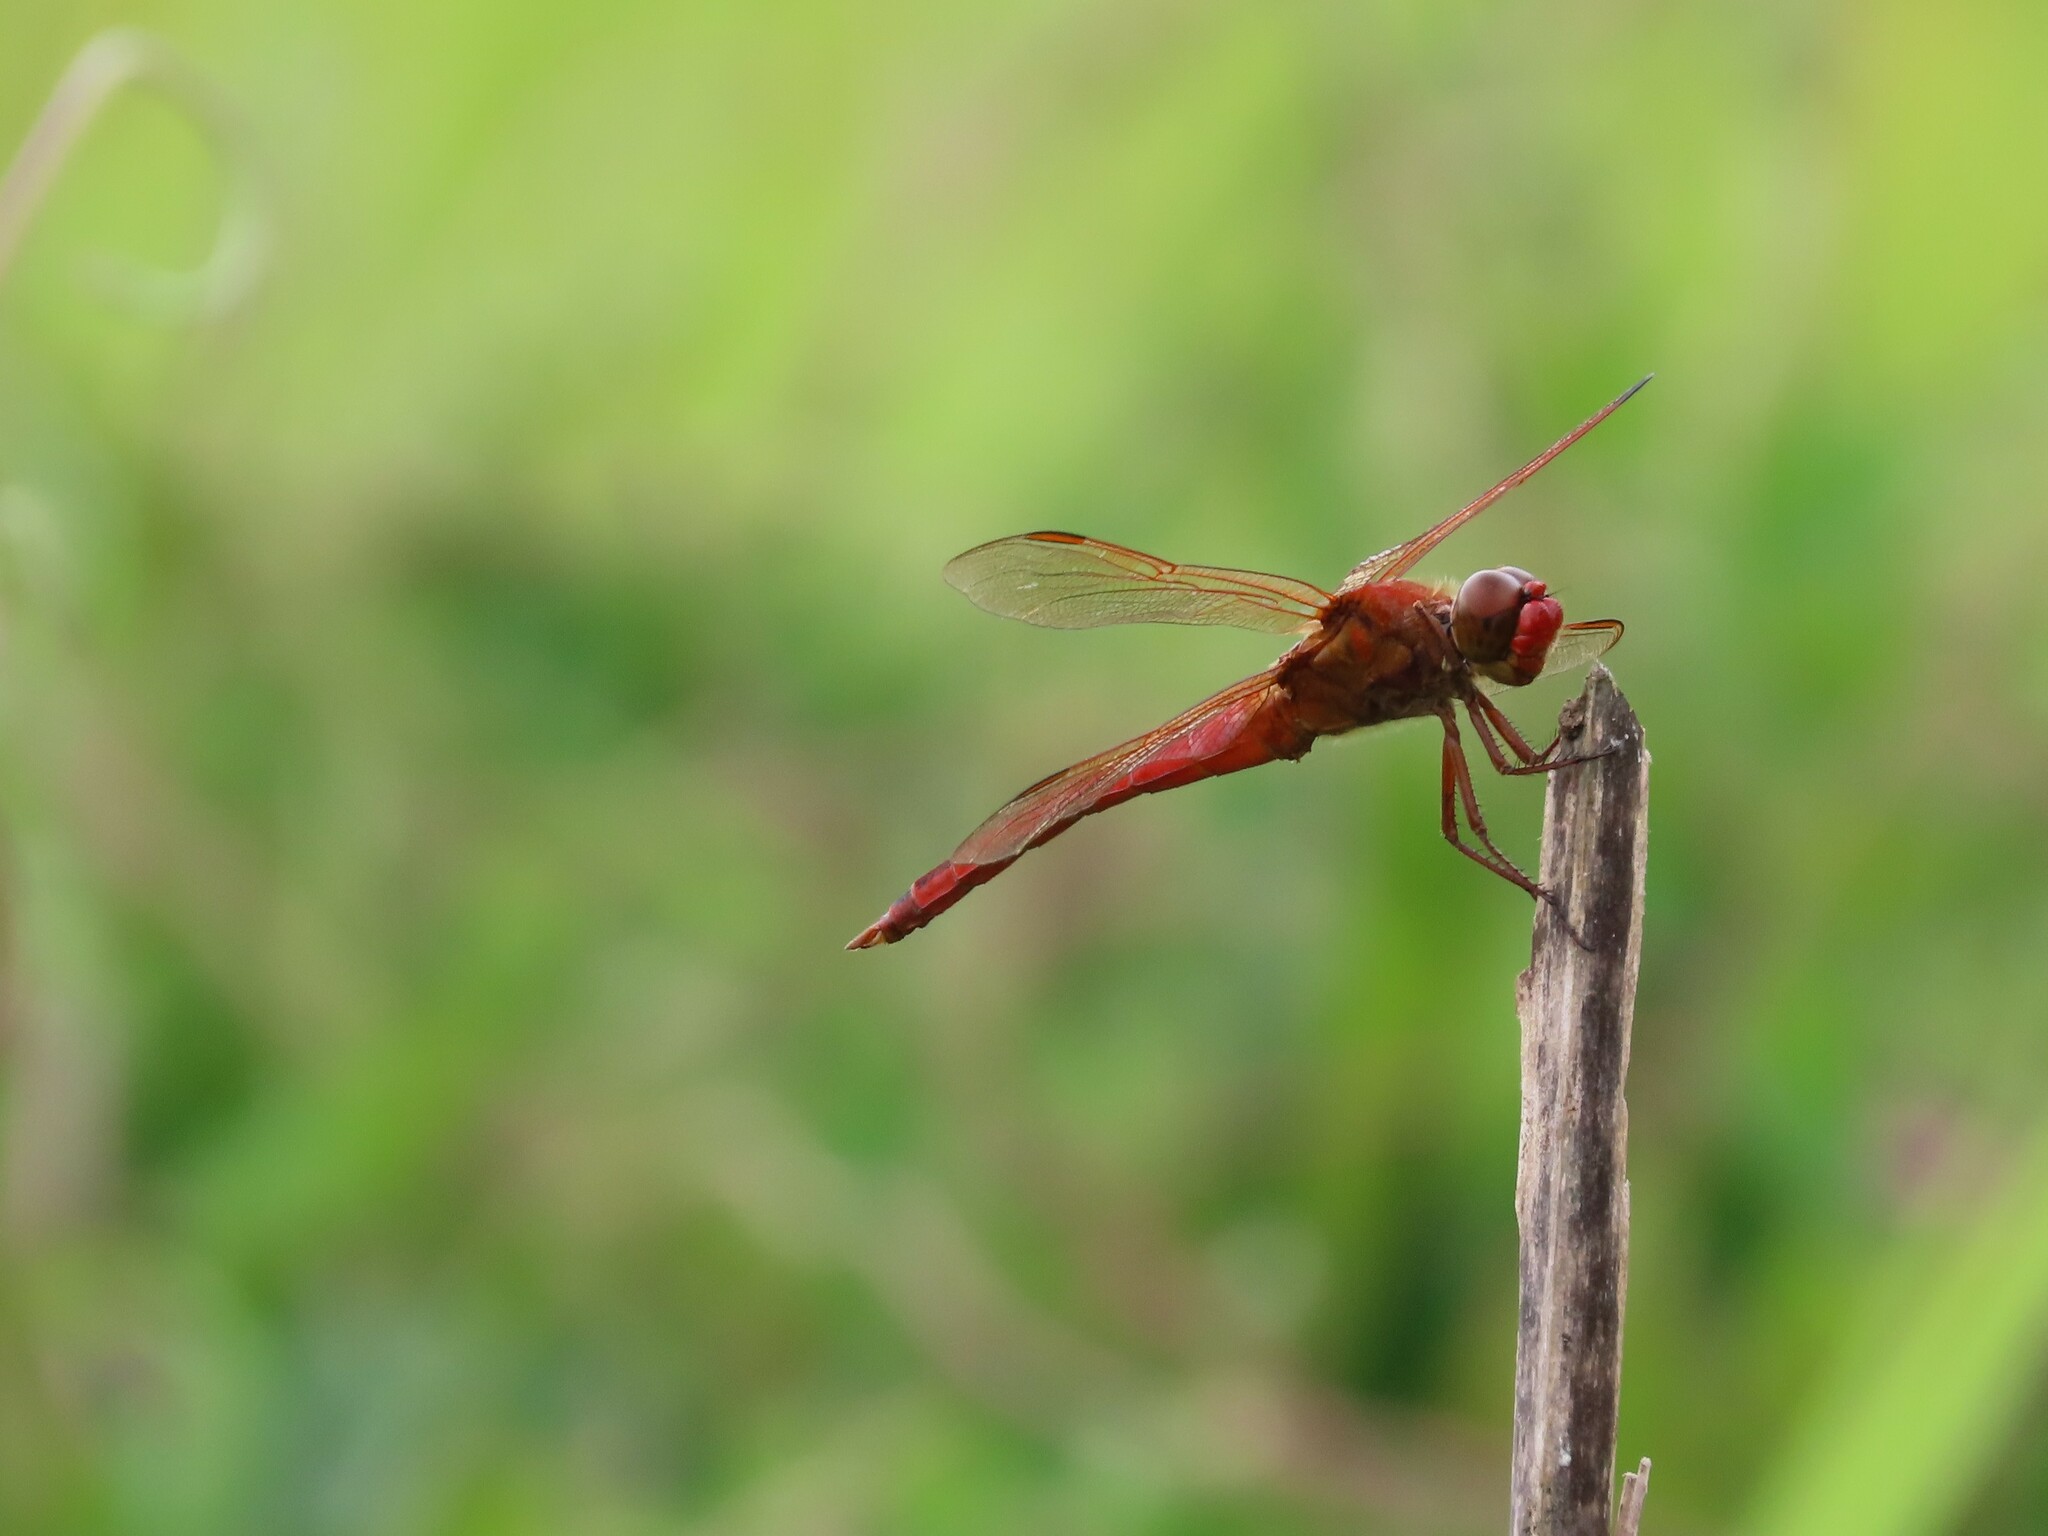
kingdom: Animalia
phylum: Arthropoda
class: Insecta
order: Odonata
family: Libellulidae
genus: Libellula
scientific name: Libellula needhami
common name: Needham's skimmer
